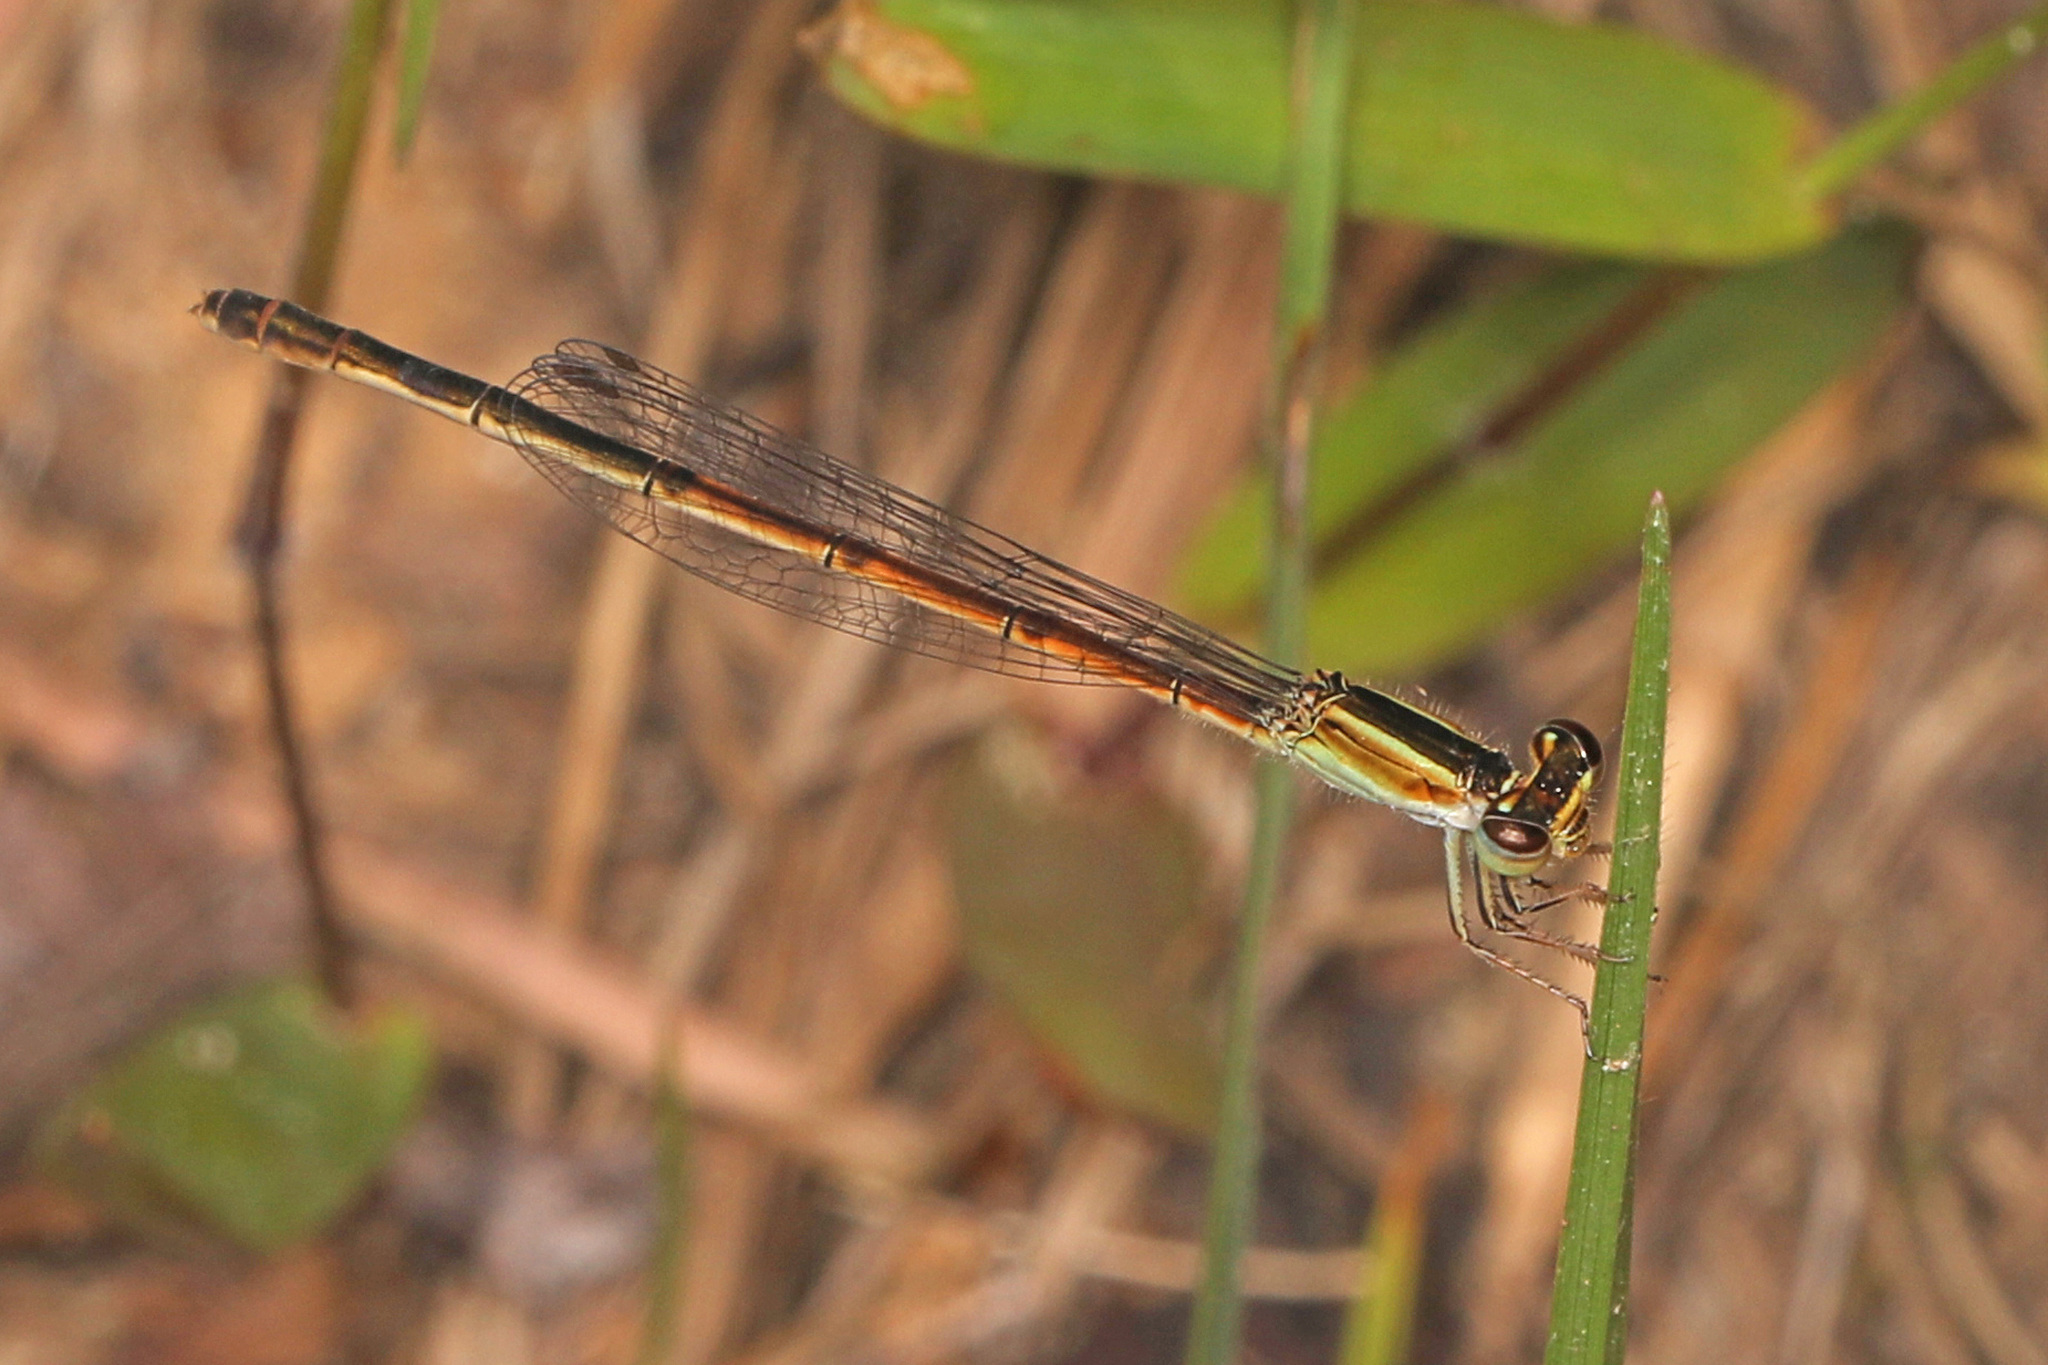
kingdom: Animalia
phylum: Arthropoda
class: Insecta
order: Odonata
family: Coenagrionidae
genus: Ischnura
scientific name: Ischnura hastata
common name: Citrine forktail
